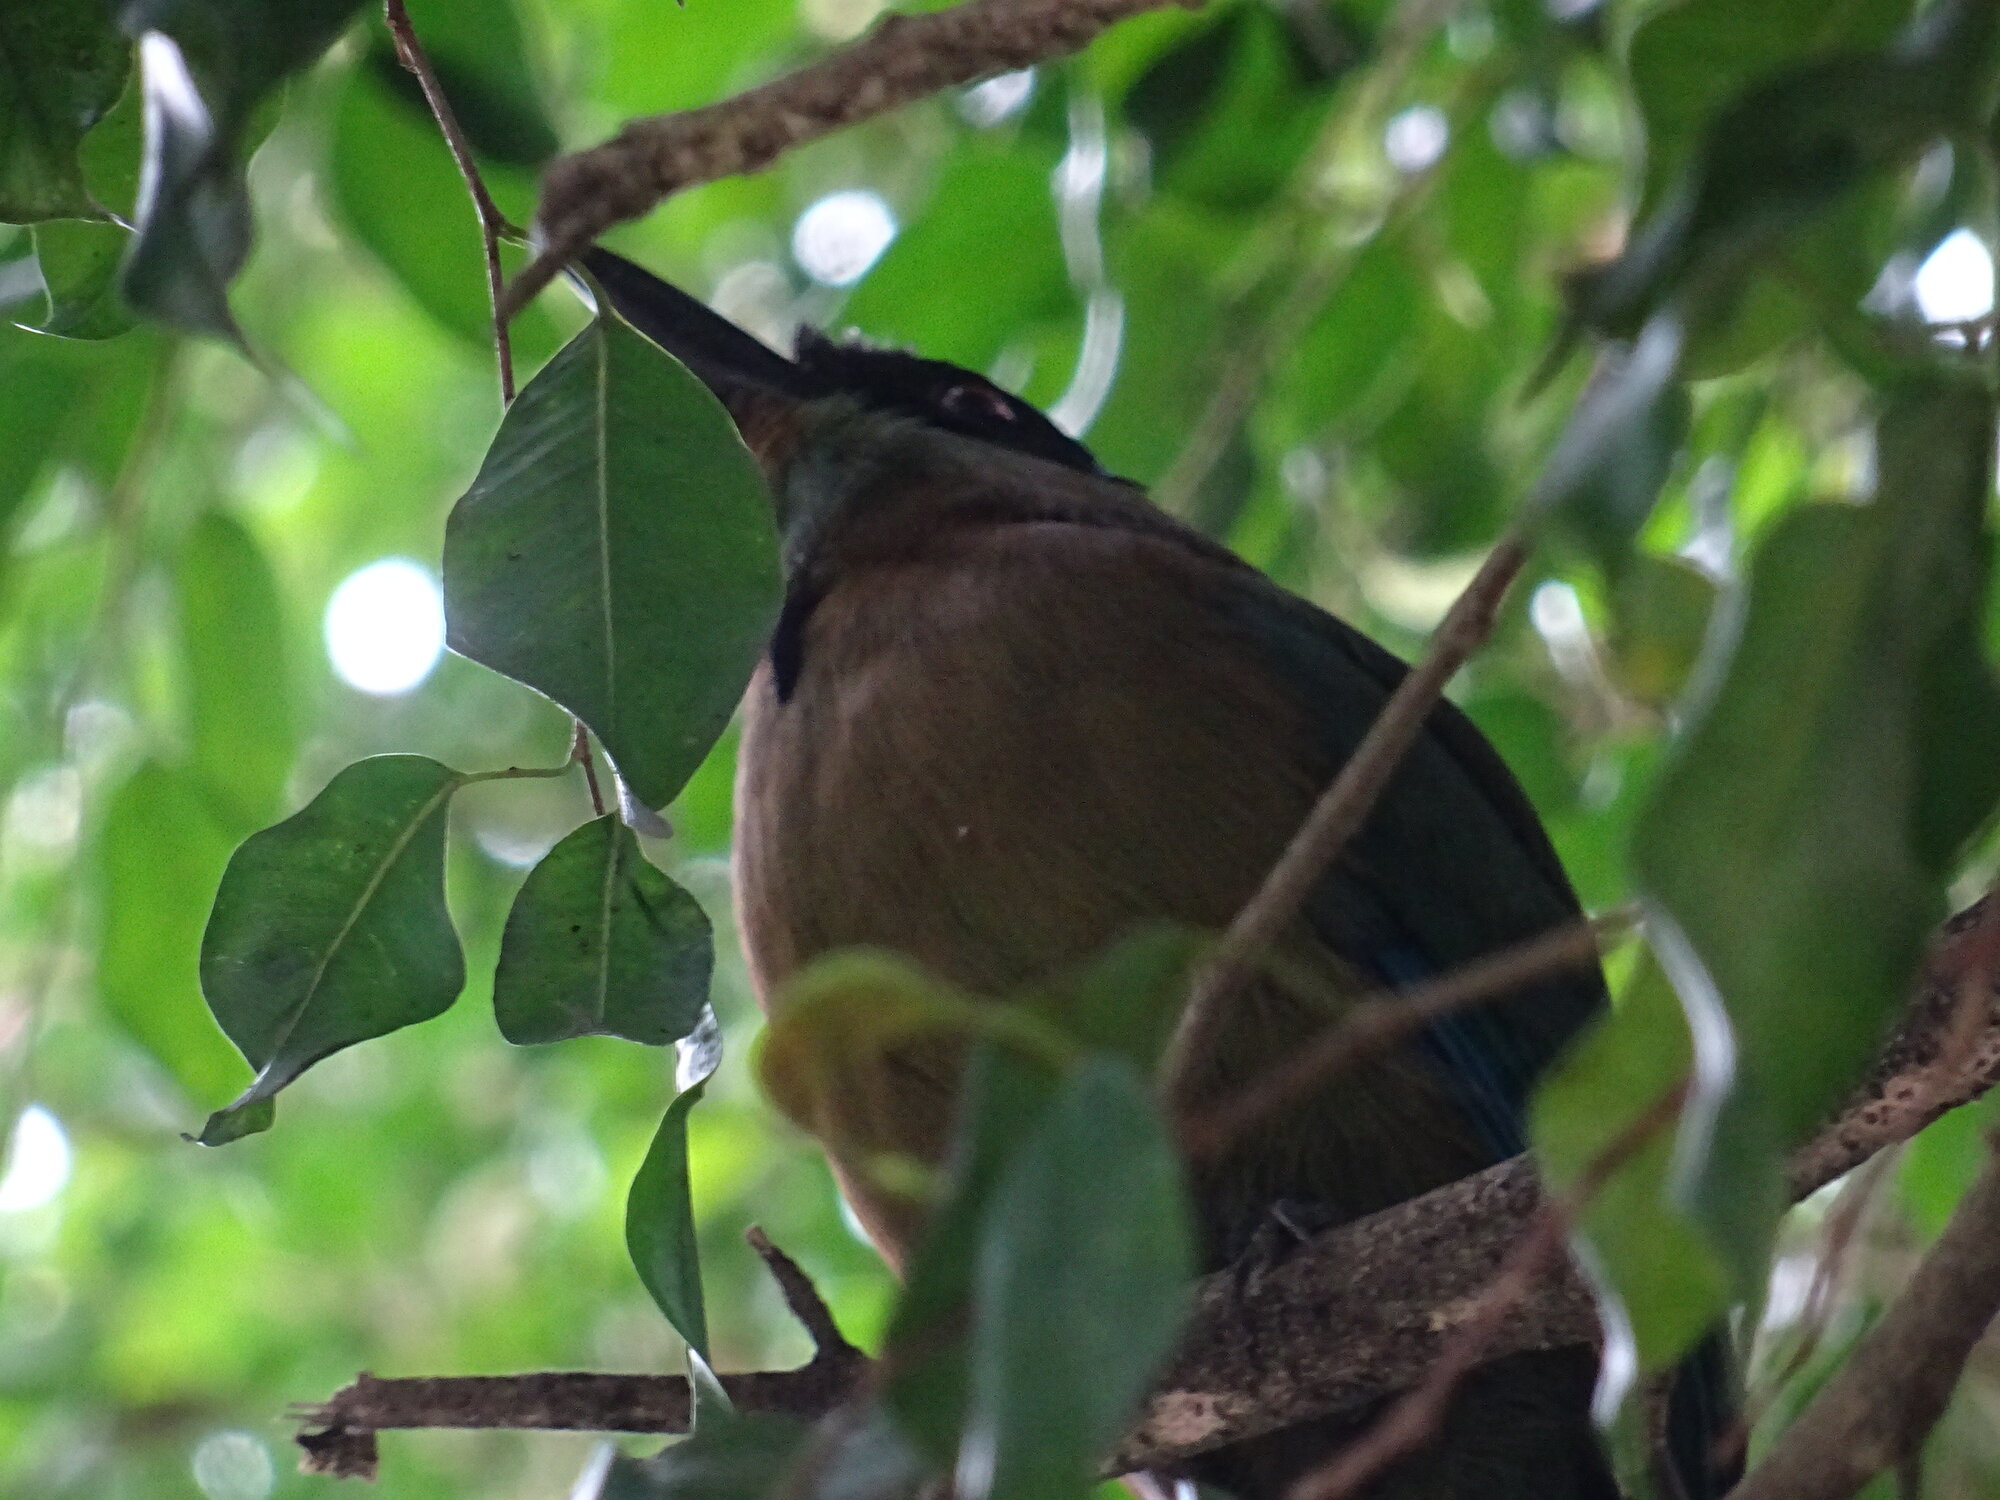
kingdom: Animalia
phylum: Chordata
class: Aves
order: Coraciiformes
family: Momotidae
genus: Momotus
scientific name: Momotus aequatorialis
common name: Andean motmot
